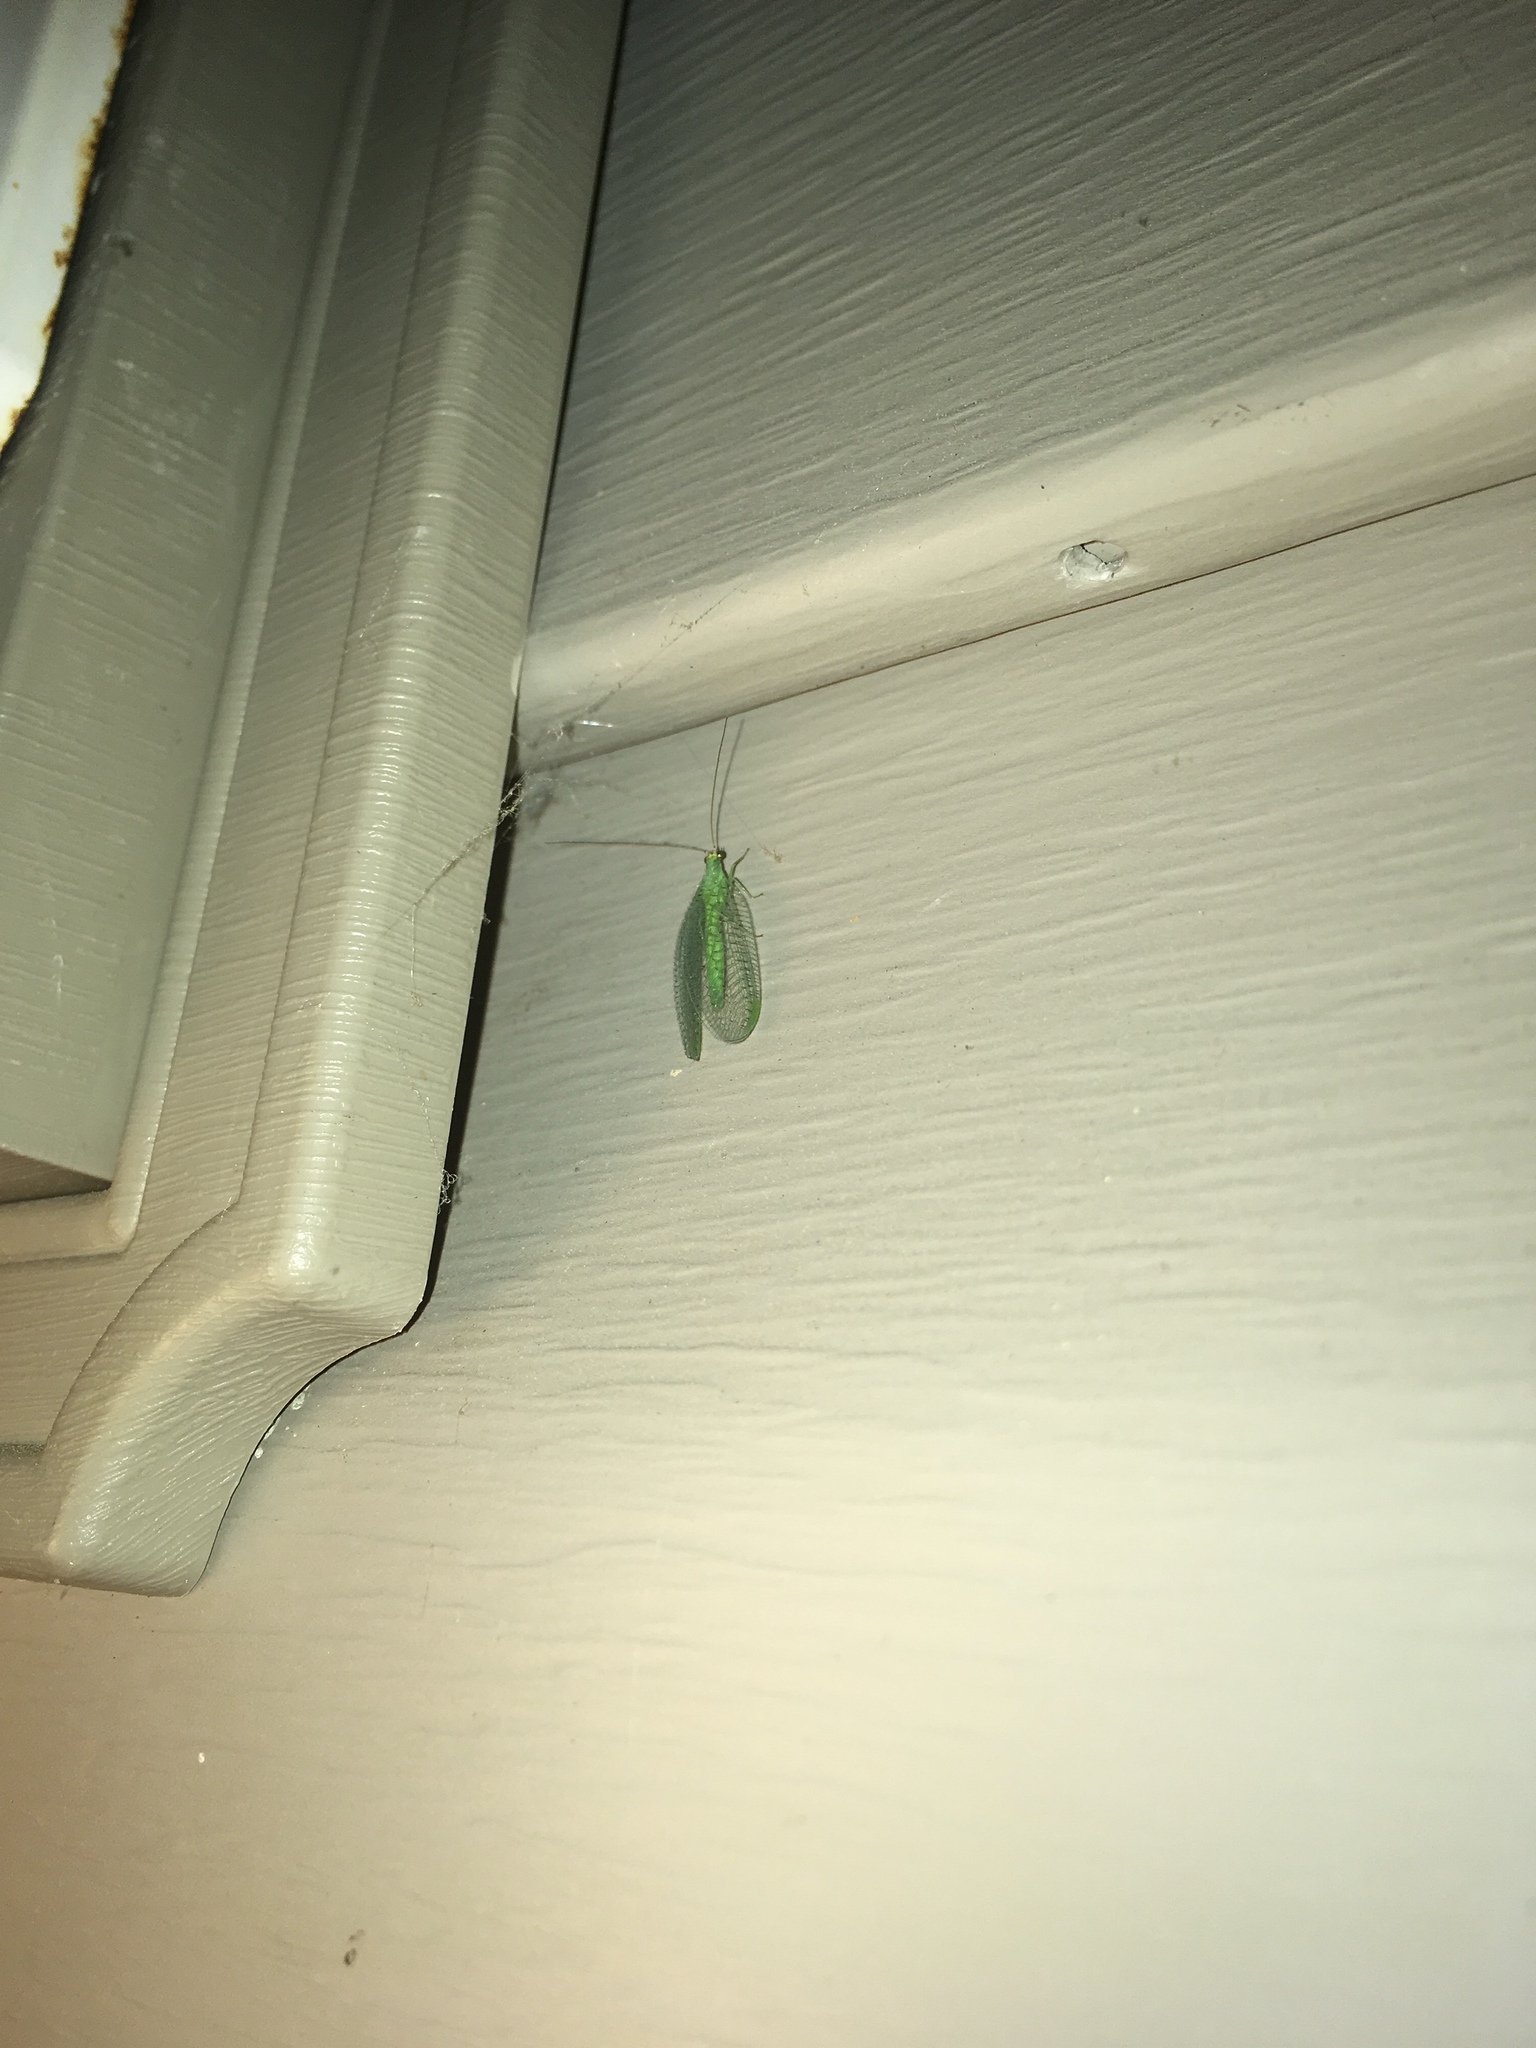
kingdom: Animalia
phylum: Arthropoda
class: Insecta
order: Neuroptera
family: Chrysopidae
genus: Chrysopa
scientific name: Chrysopa oculata
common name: Golden-eyed lacewing
